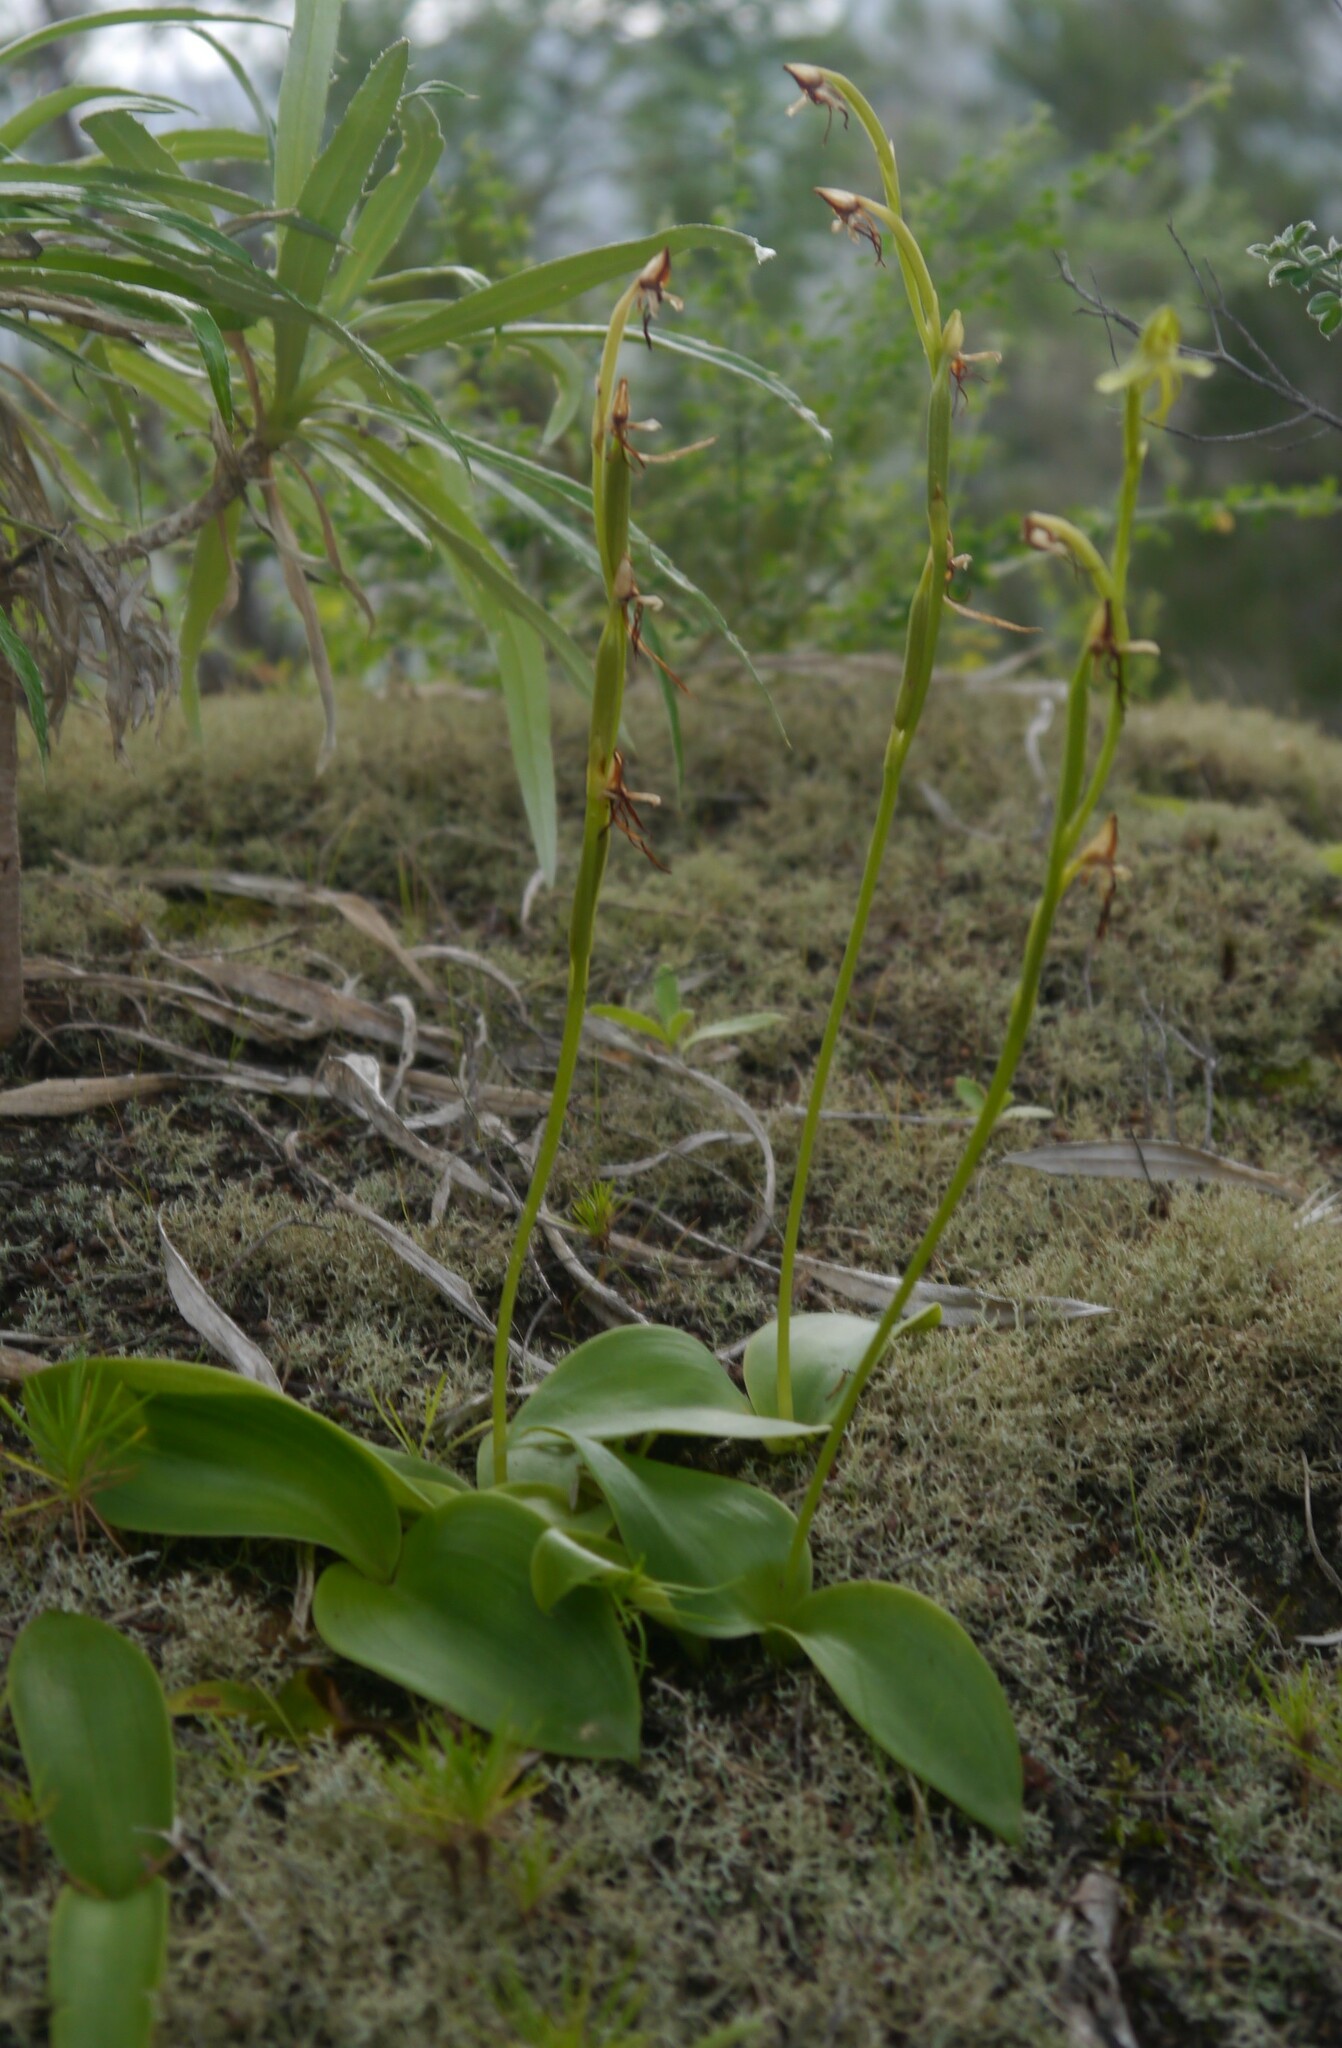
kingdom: Plantae
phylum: Tracheophyta
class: Liliopsida
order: Asparagales
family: Orchidaceae
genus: Habenaria
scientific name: Habenaria tridactylites
